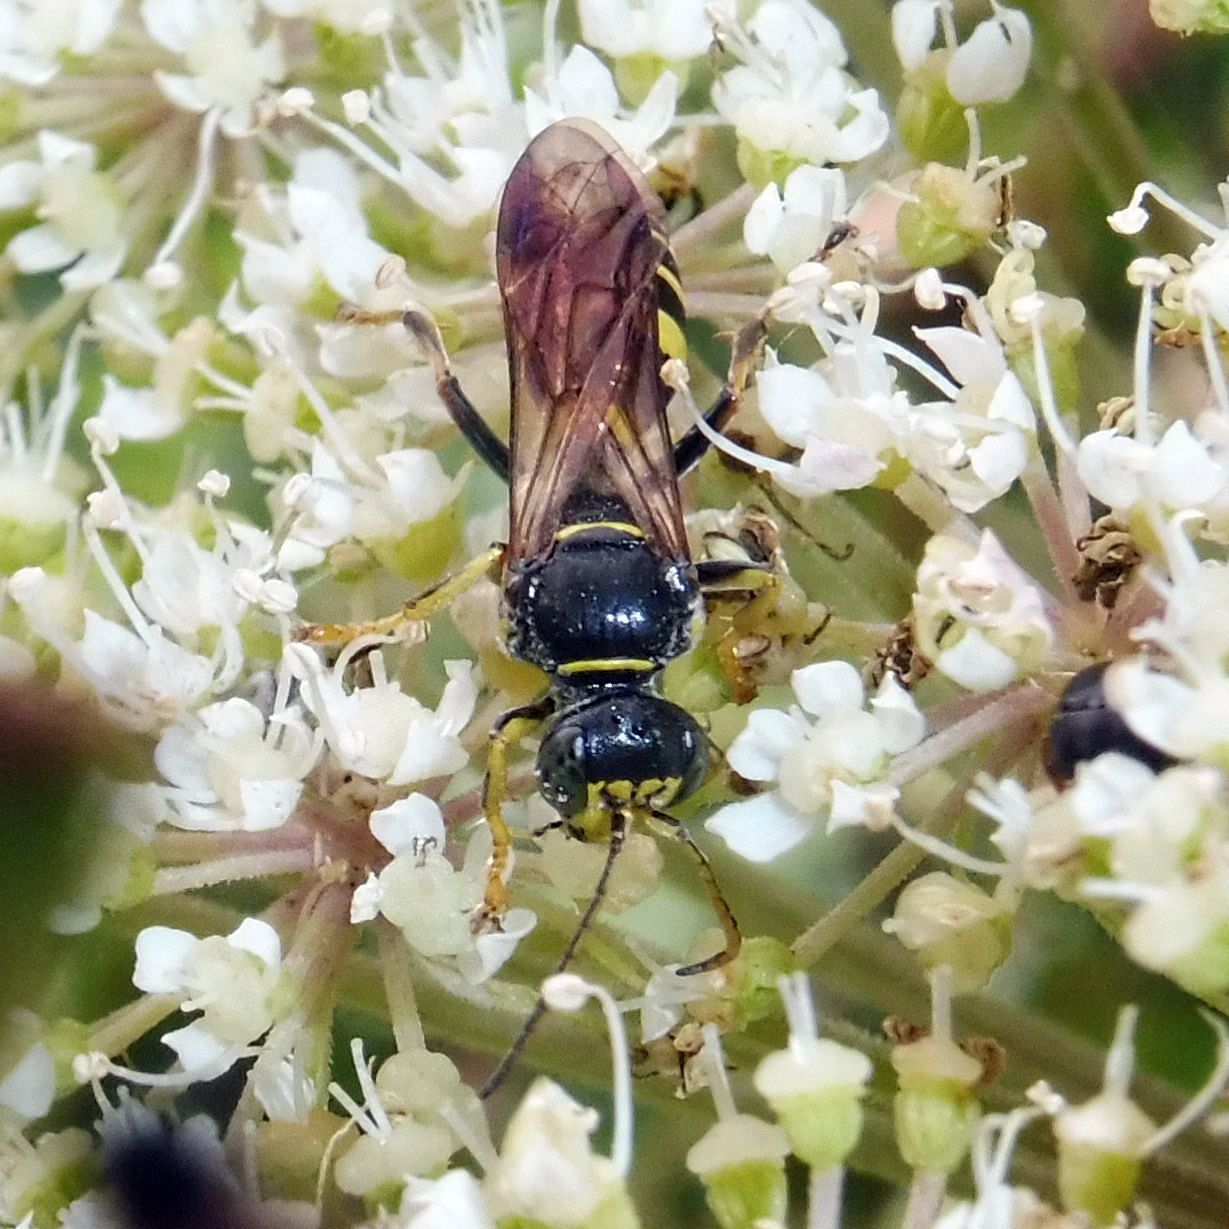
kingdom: Animalia
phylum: Arthropoda
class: Insecta
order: Hymenoptera
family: Crabronidae
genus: Gorytes
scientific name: Gorytes laticinctus
